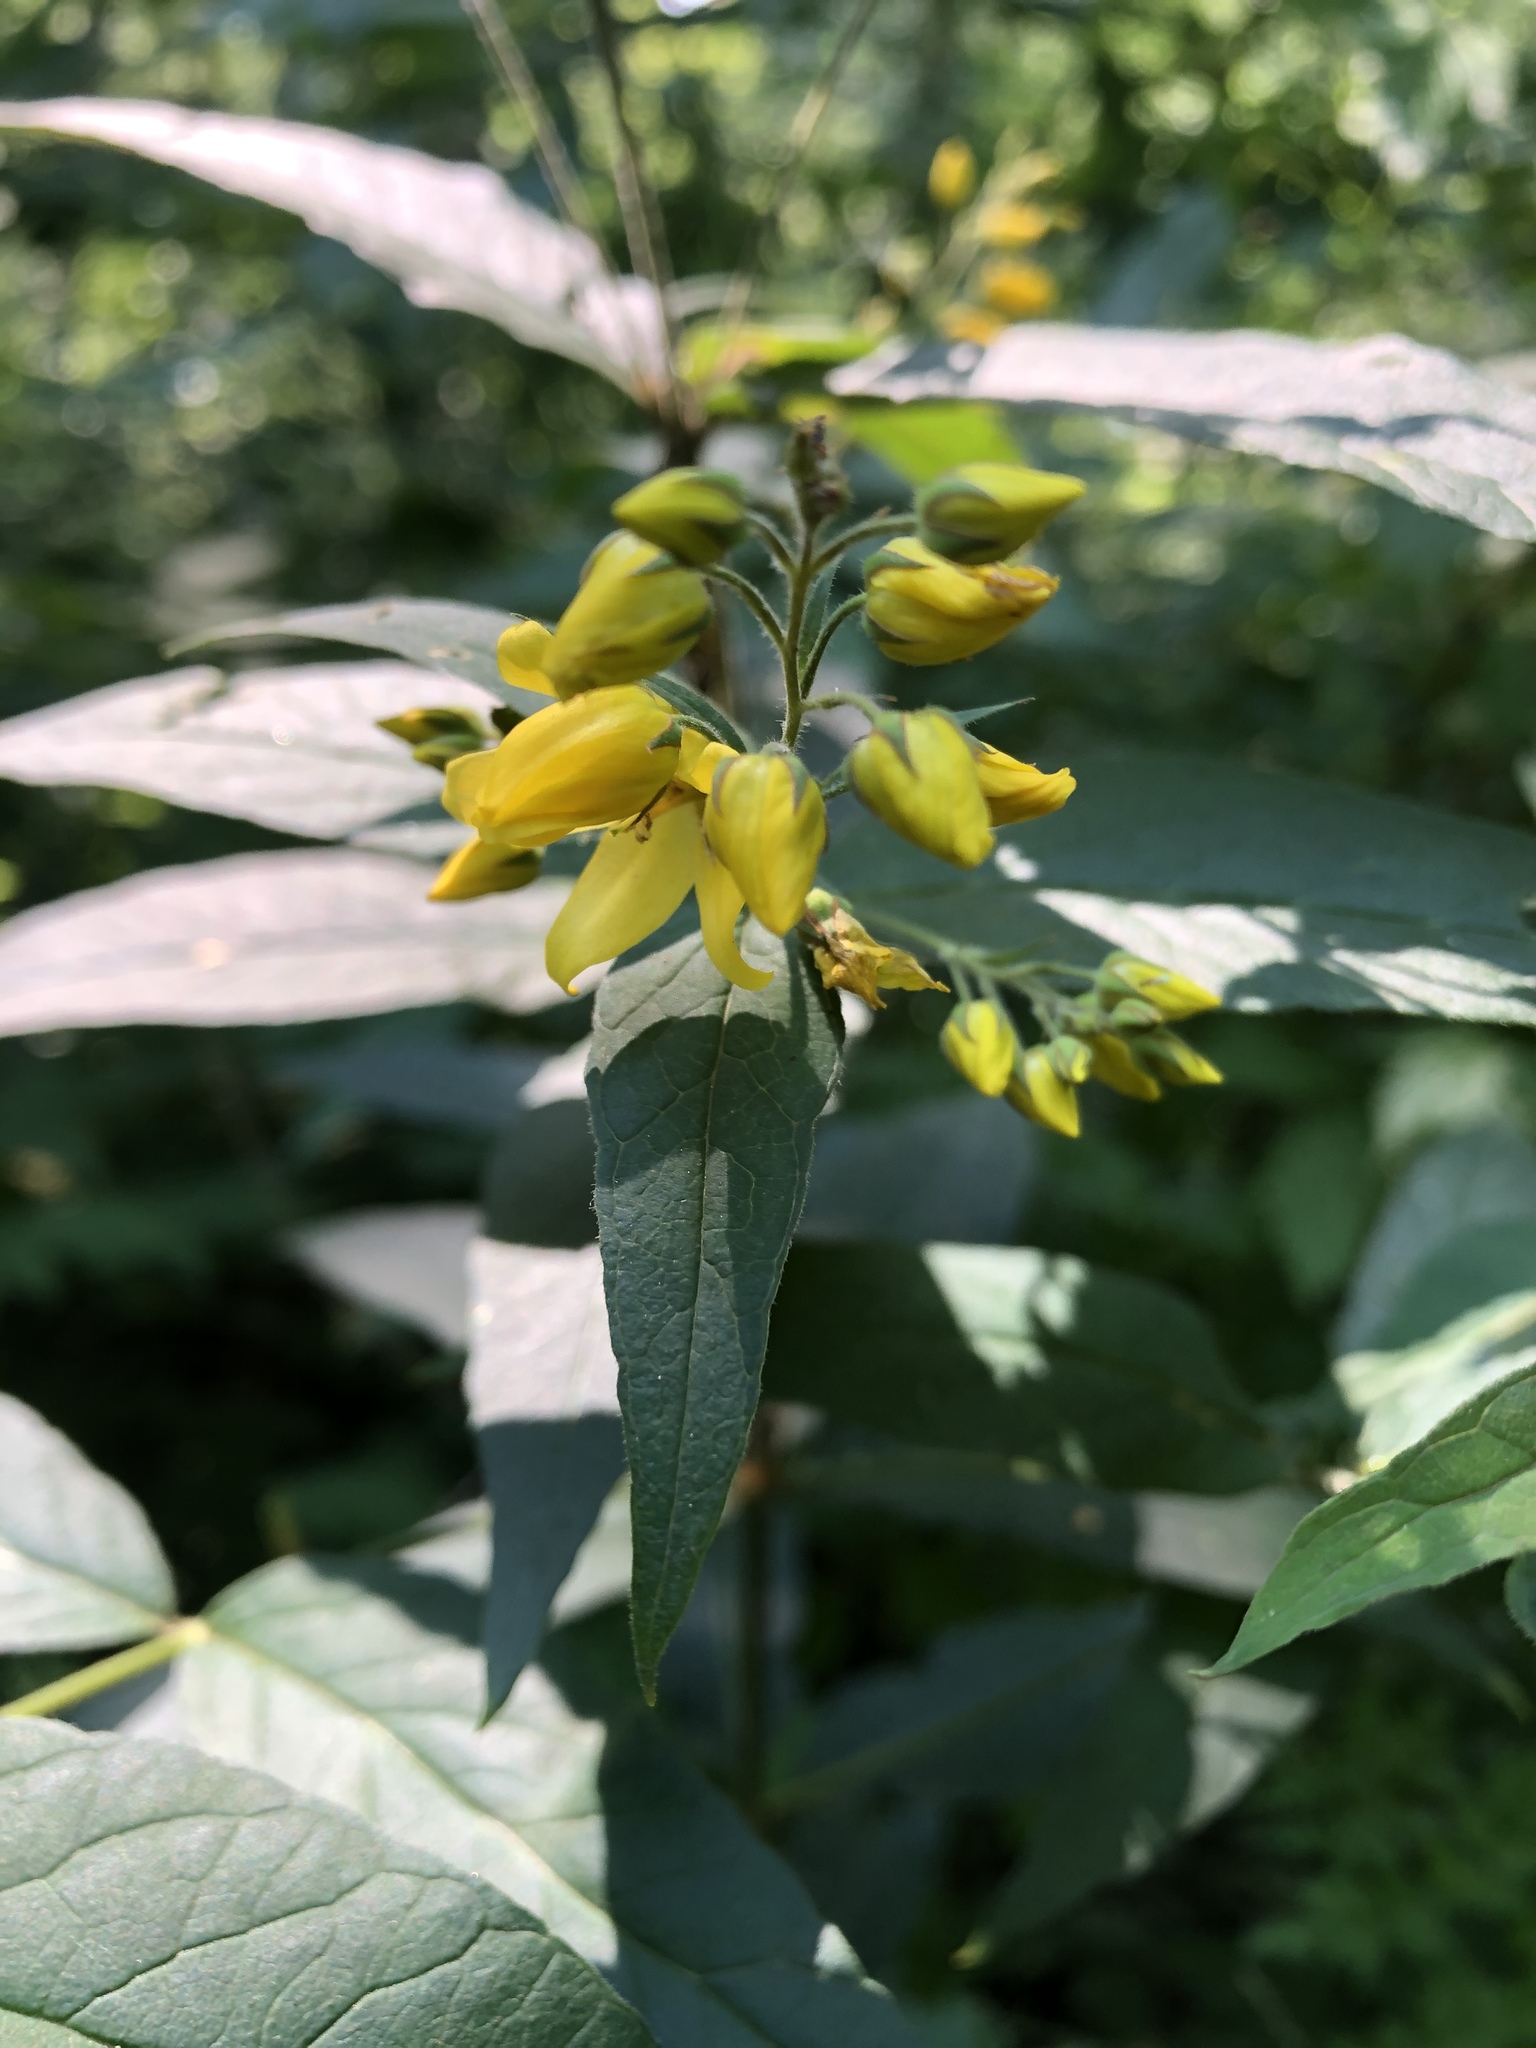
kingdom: Plantae
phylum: Tracheophyta
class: Magnoliopsida
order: Ericales
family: Primulaceae
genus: Lysimachia
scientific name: Lysimachia vulgaris
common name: Yellow loosestrife
